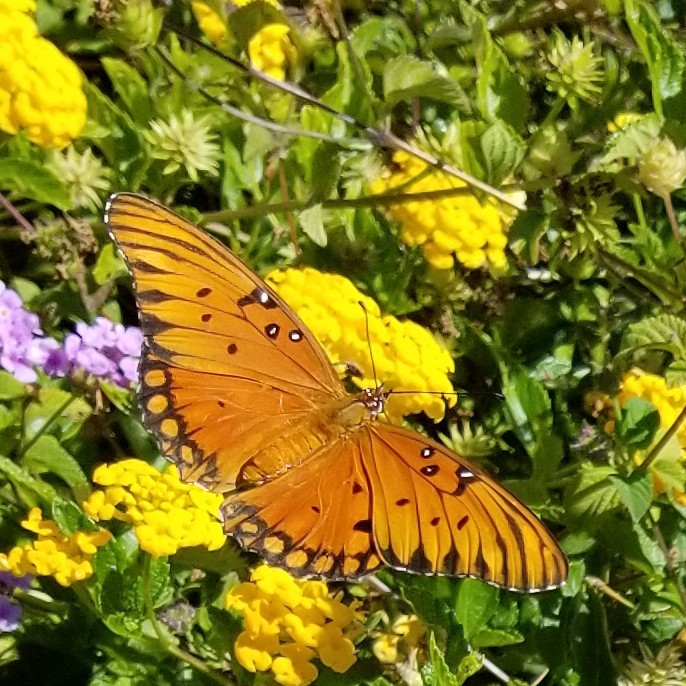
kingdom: Animalia
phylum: Arthropoda
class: Insecta
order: Lepidoptera
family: Nymphalidae
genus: Dione
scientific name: Dione vanillae
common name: Gulf fritillary
